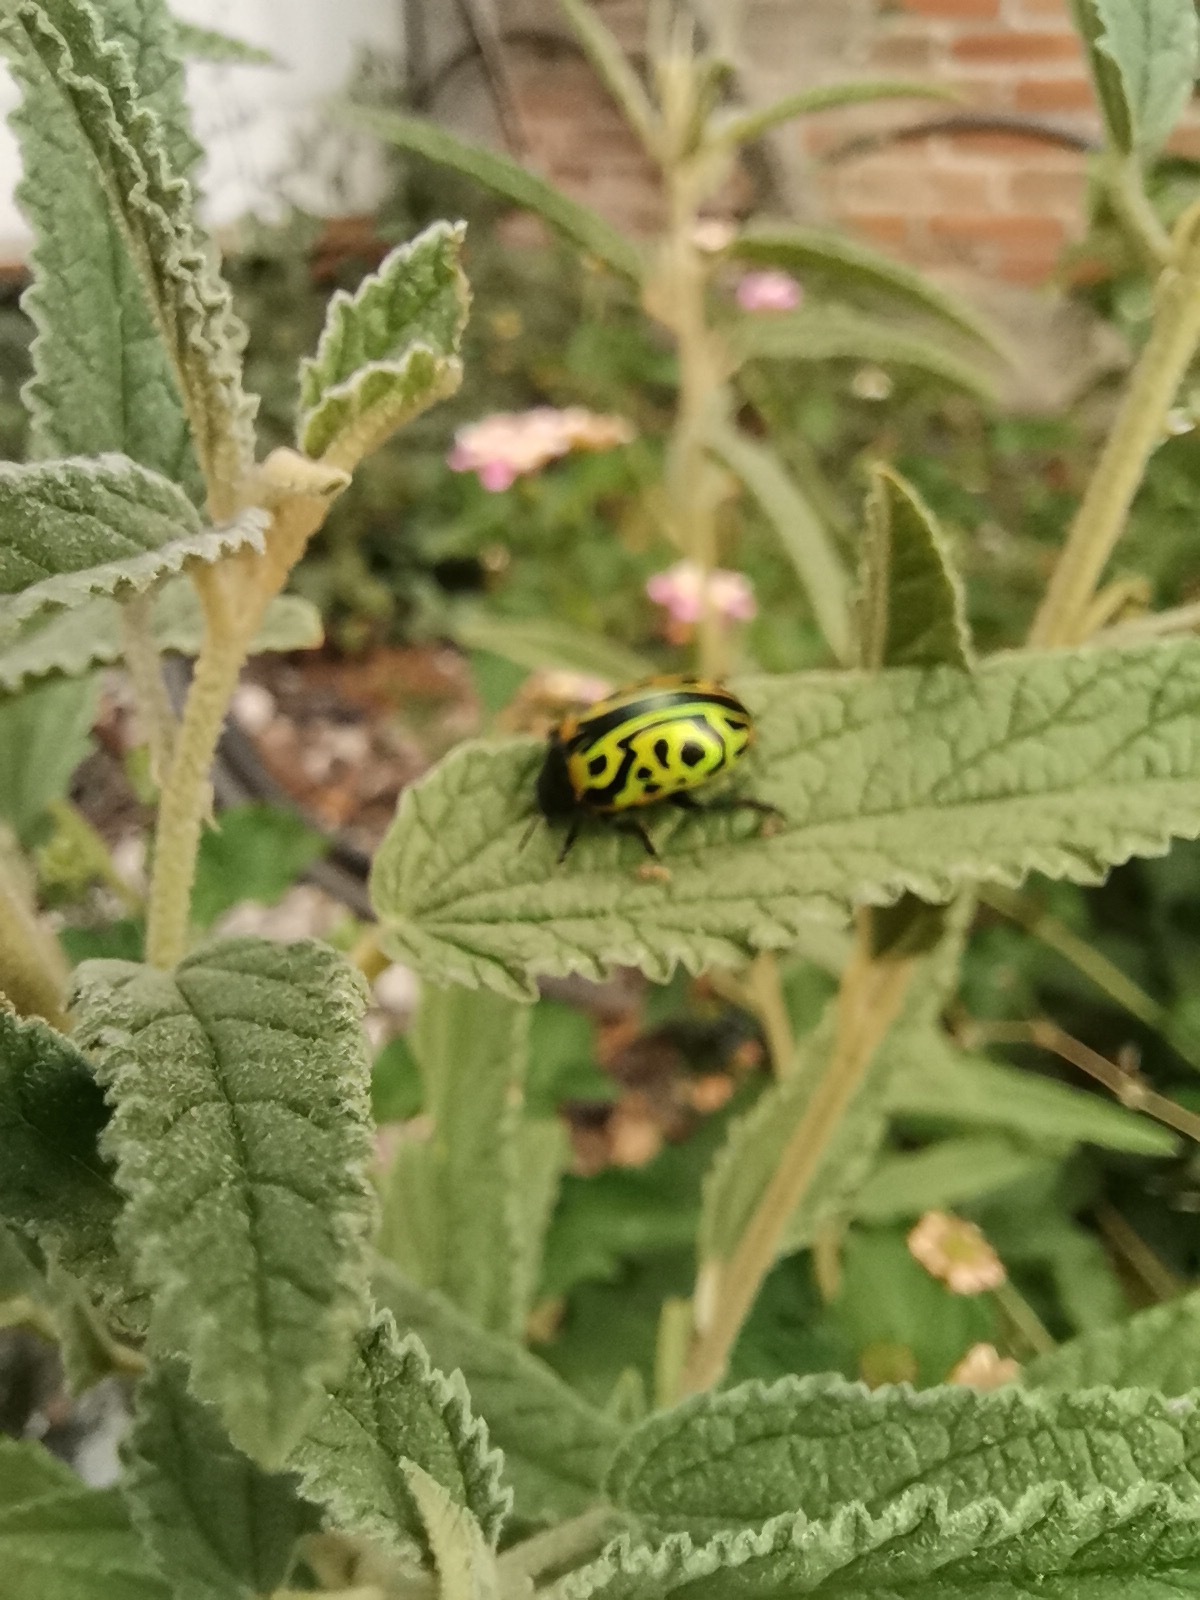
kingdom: Animalia
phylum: Arthropoda
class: Insecta
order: Coleoptera
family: Chrysomelidae
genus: Calligrapha
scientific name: Calligrapha mexicana
